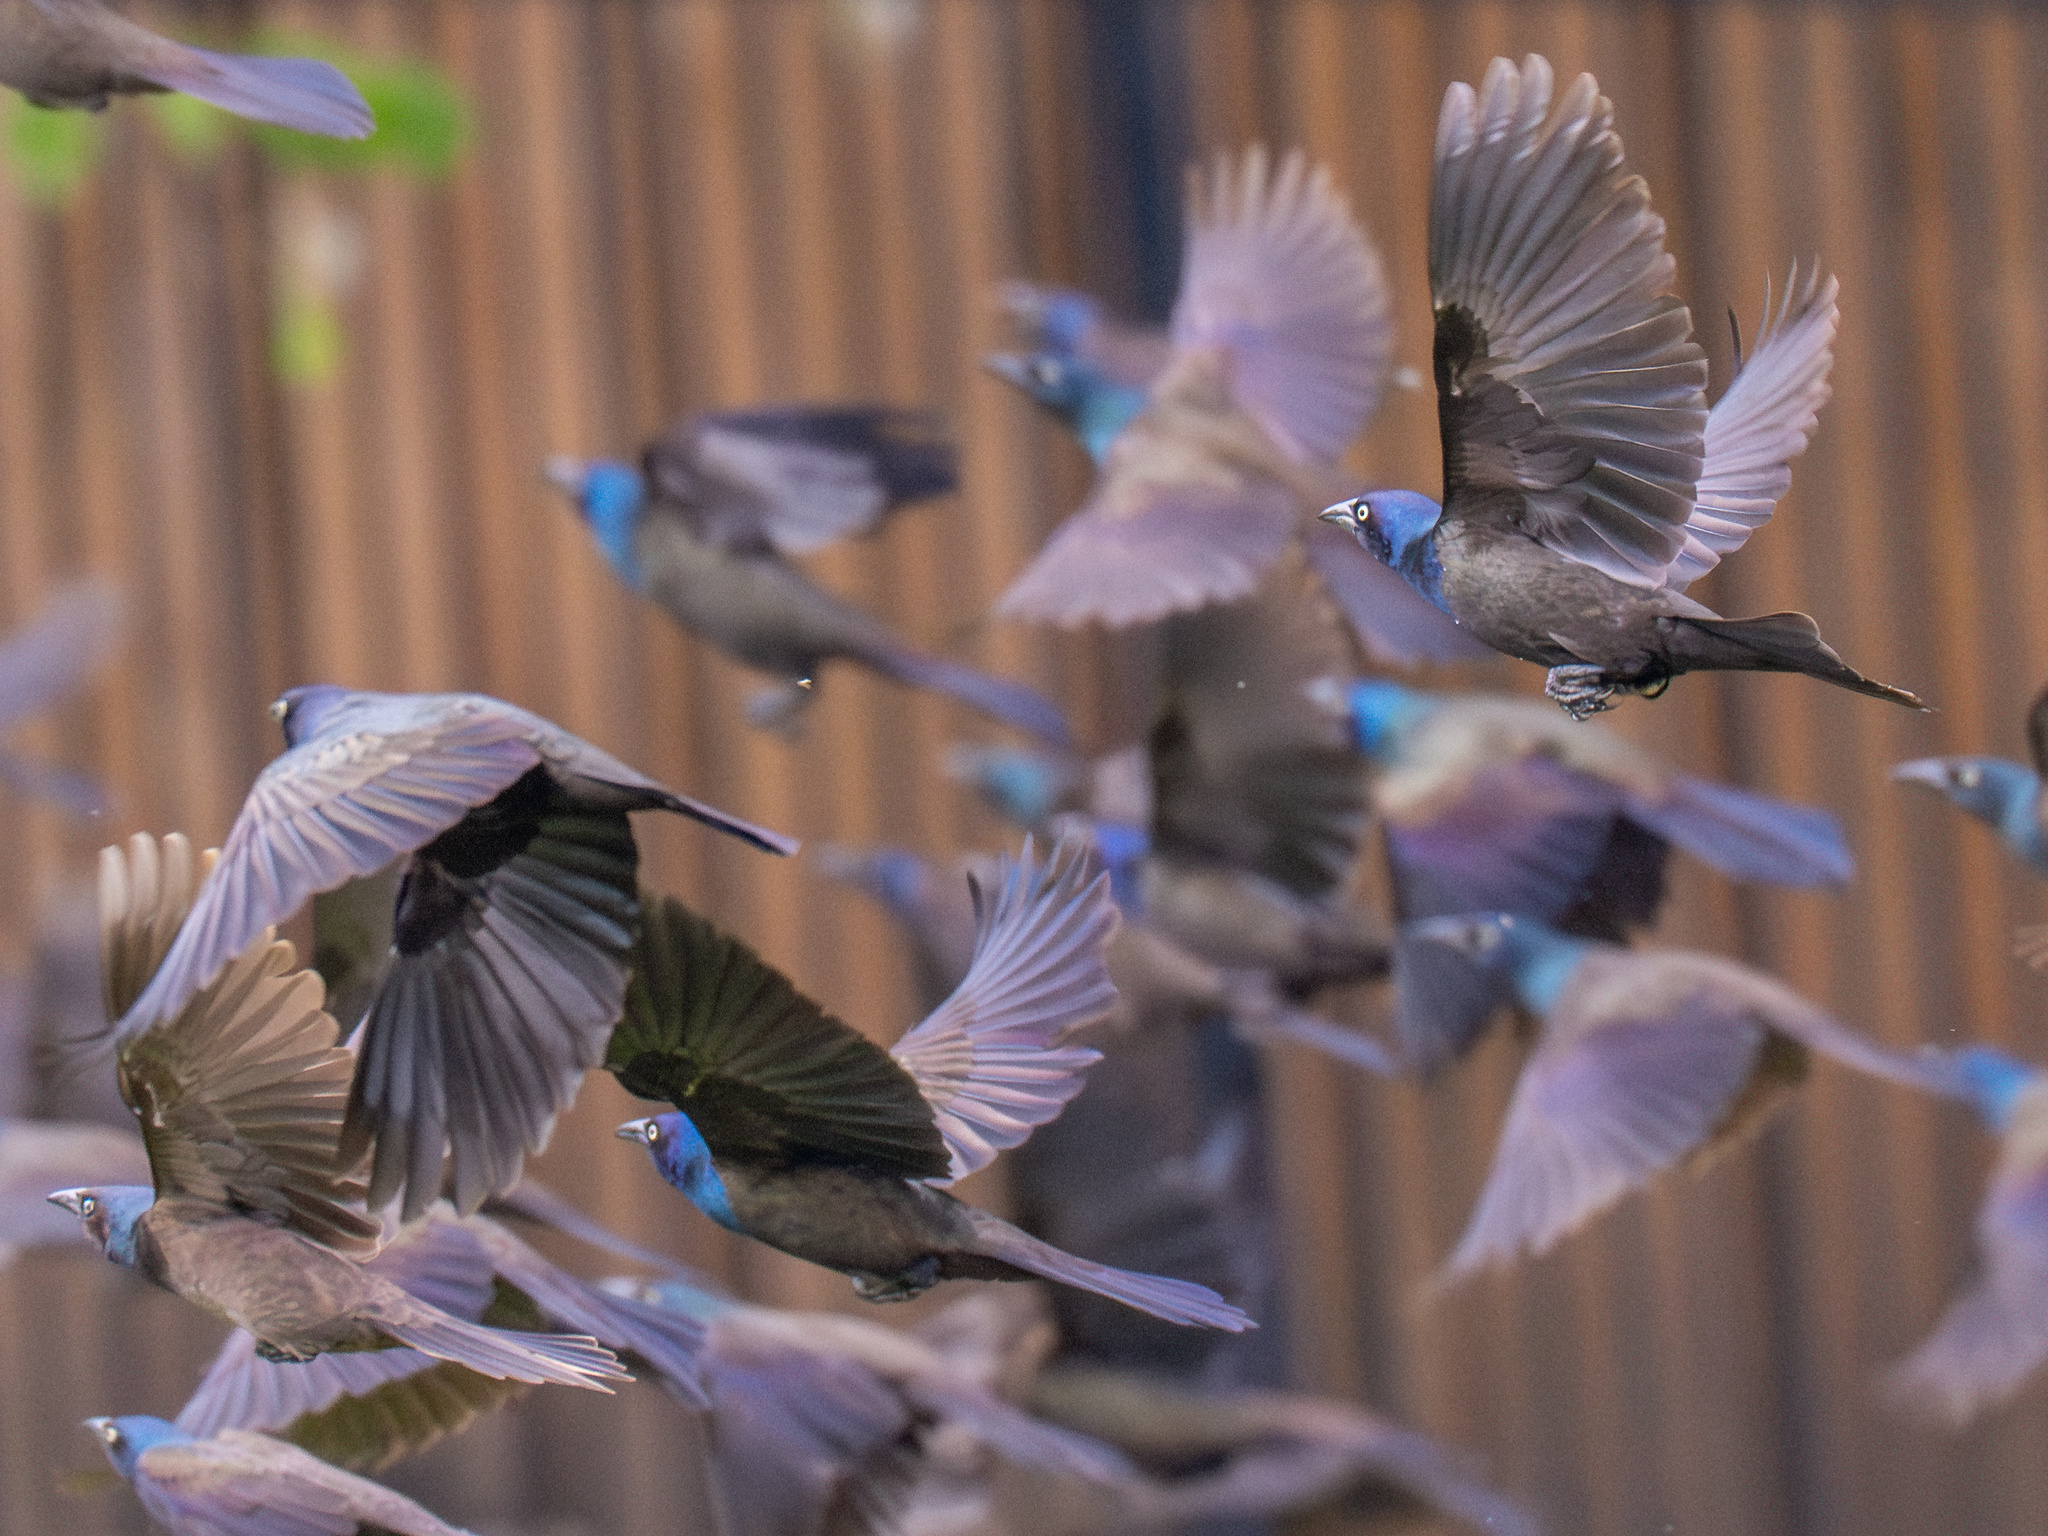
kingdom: Animalia
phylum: Chordata
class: Aves
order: Passeriformes
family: Icteridae
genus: Quiscalus
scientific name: Quiscalus quiscula
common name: Common grackle
